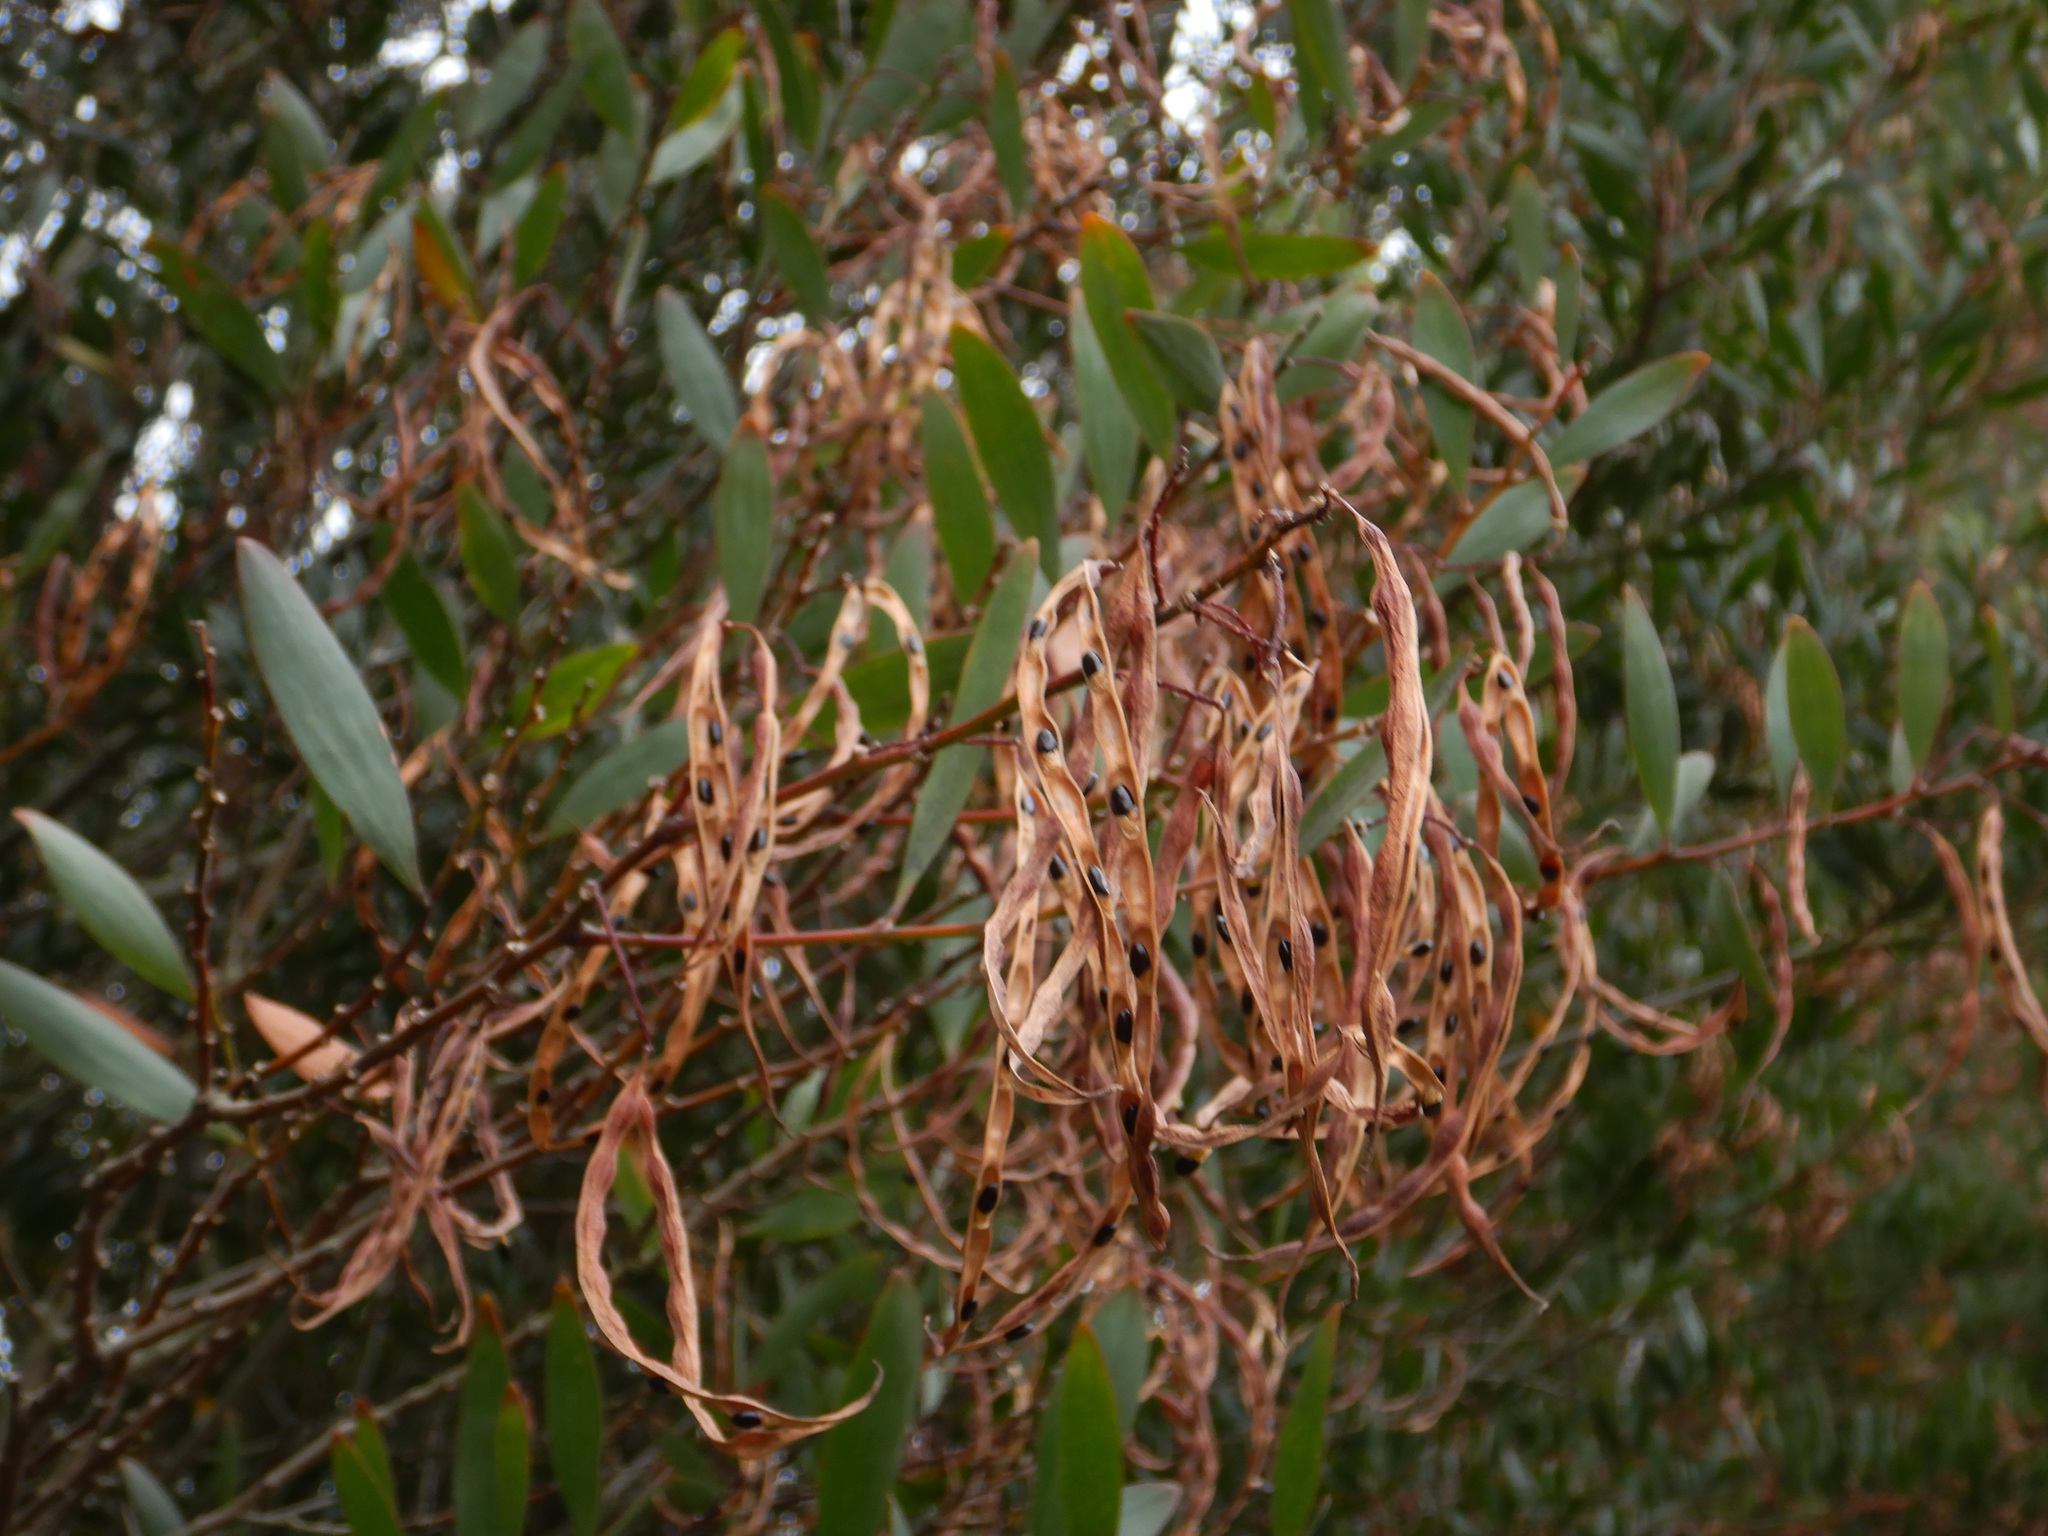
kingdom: Plantae
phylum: Tracheophyta
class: Magnoliopsida
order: Fabales
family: Fabaceae
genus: Acacia
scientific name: Acacia longifolia
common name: Sydney golden wattle
